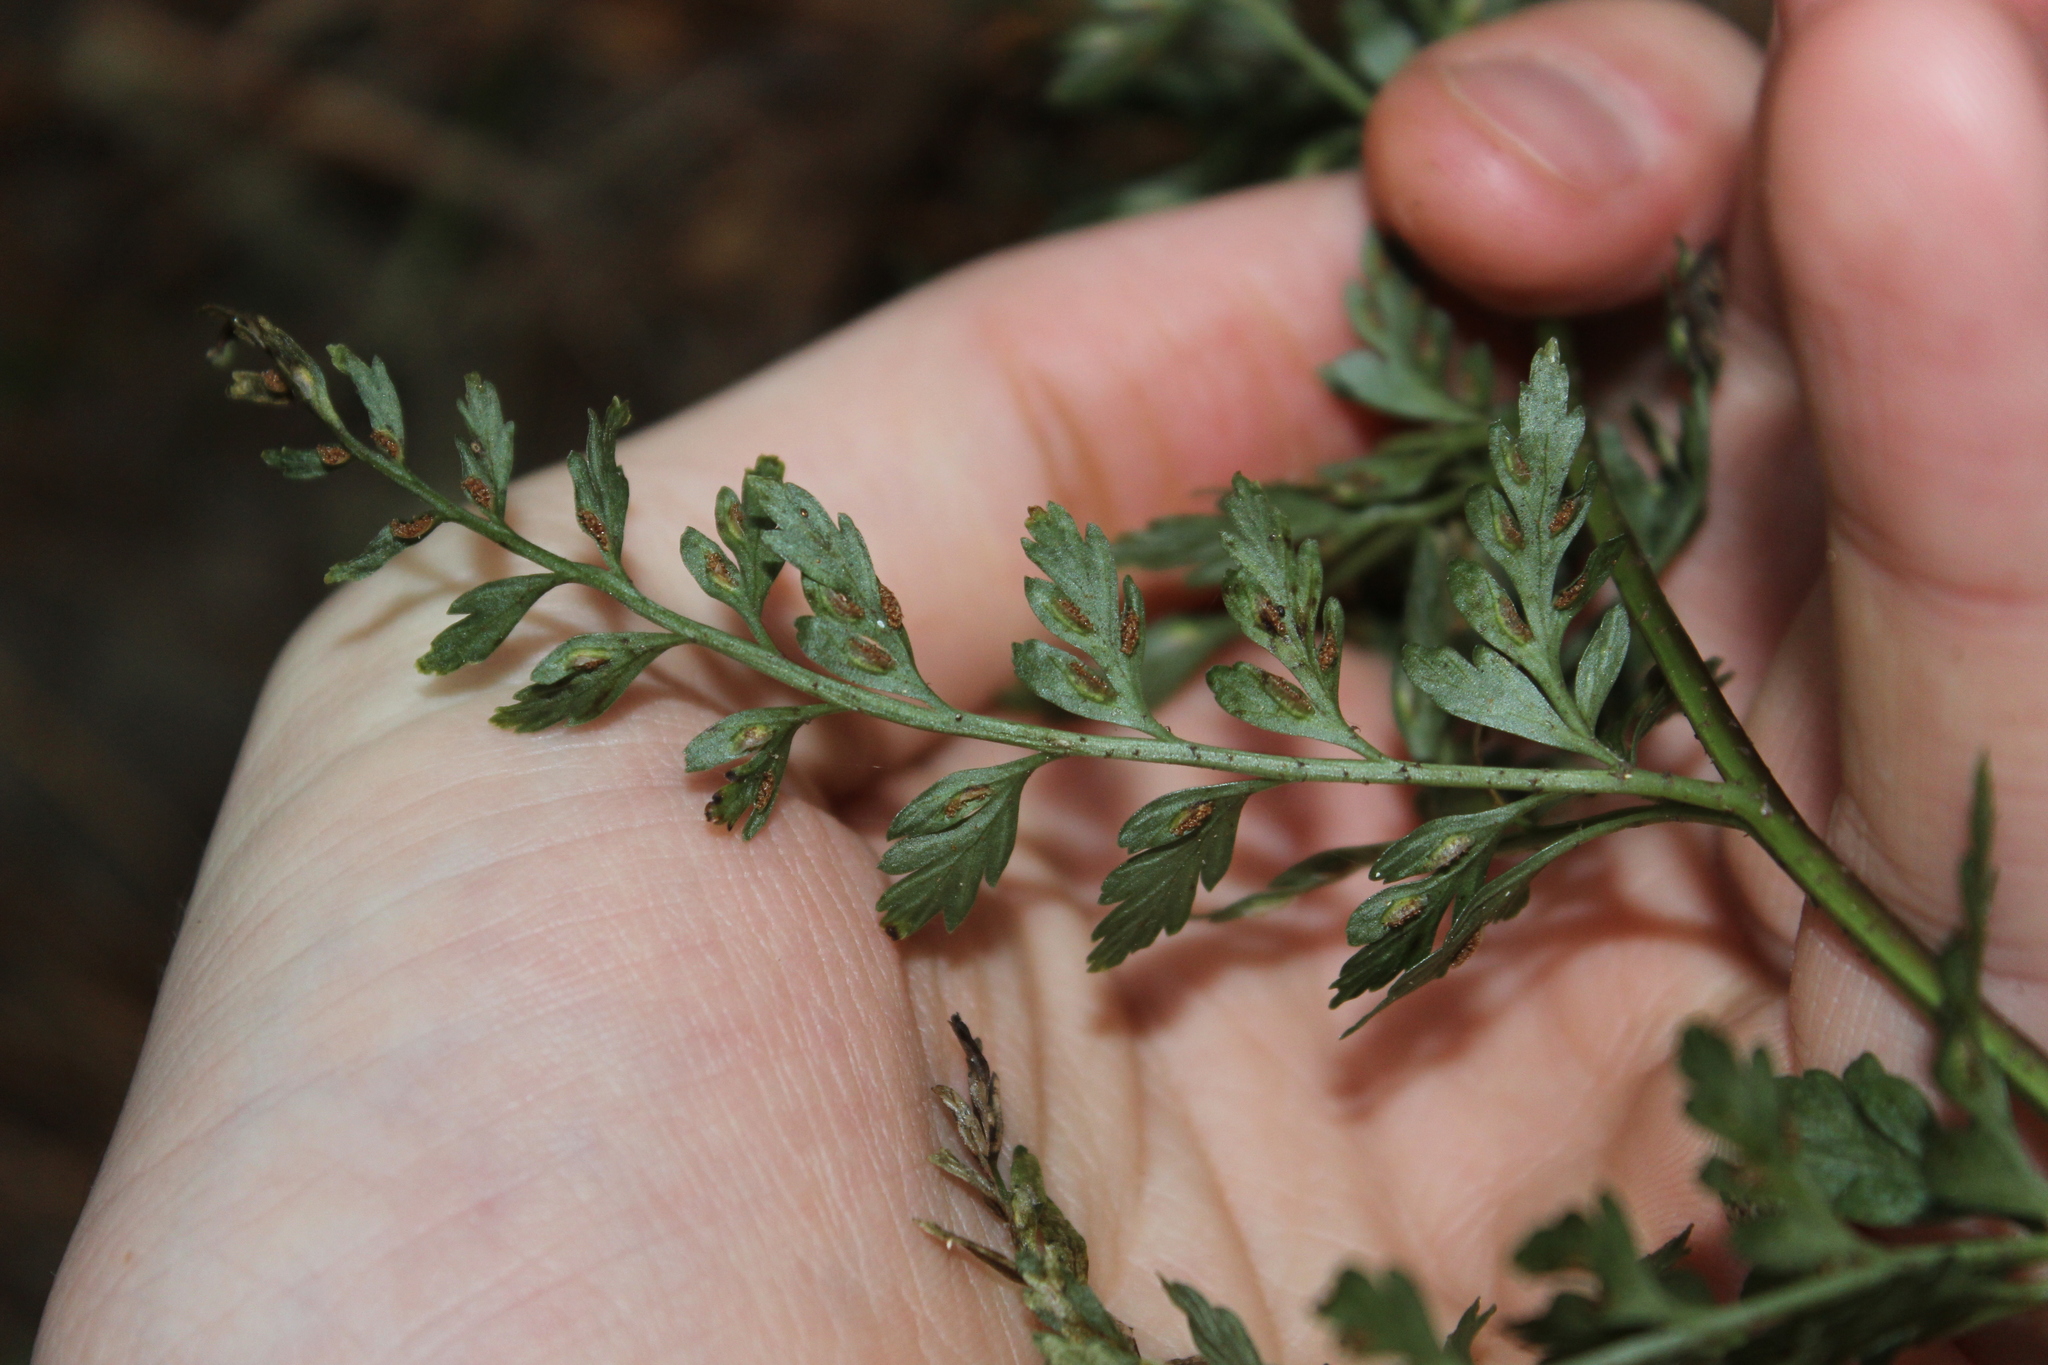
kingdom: Plantae
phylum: Tracheophyta
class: Polypodiopsida
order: Polypodiales
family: Aspleniaceae
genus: Asplenium
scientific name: Asplenium hookerianum
